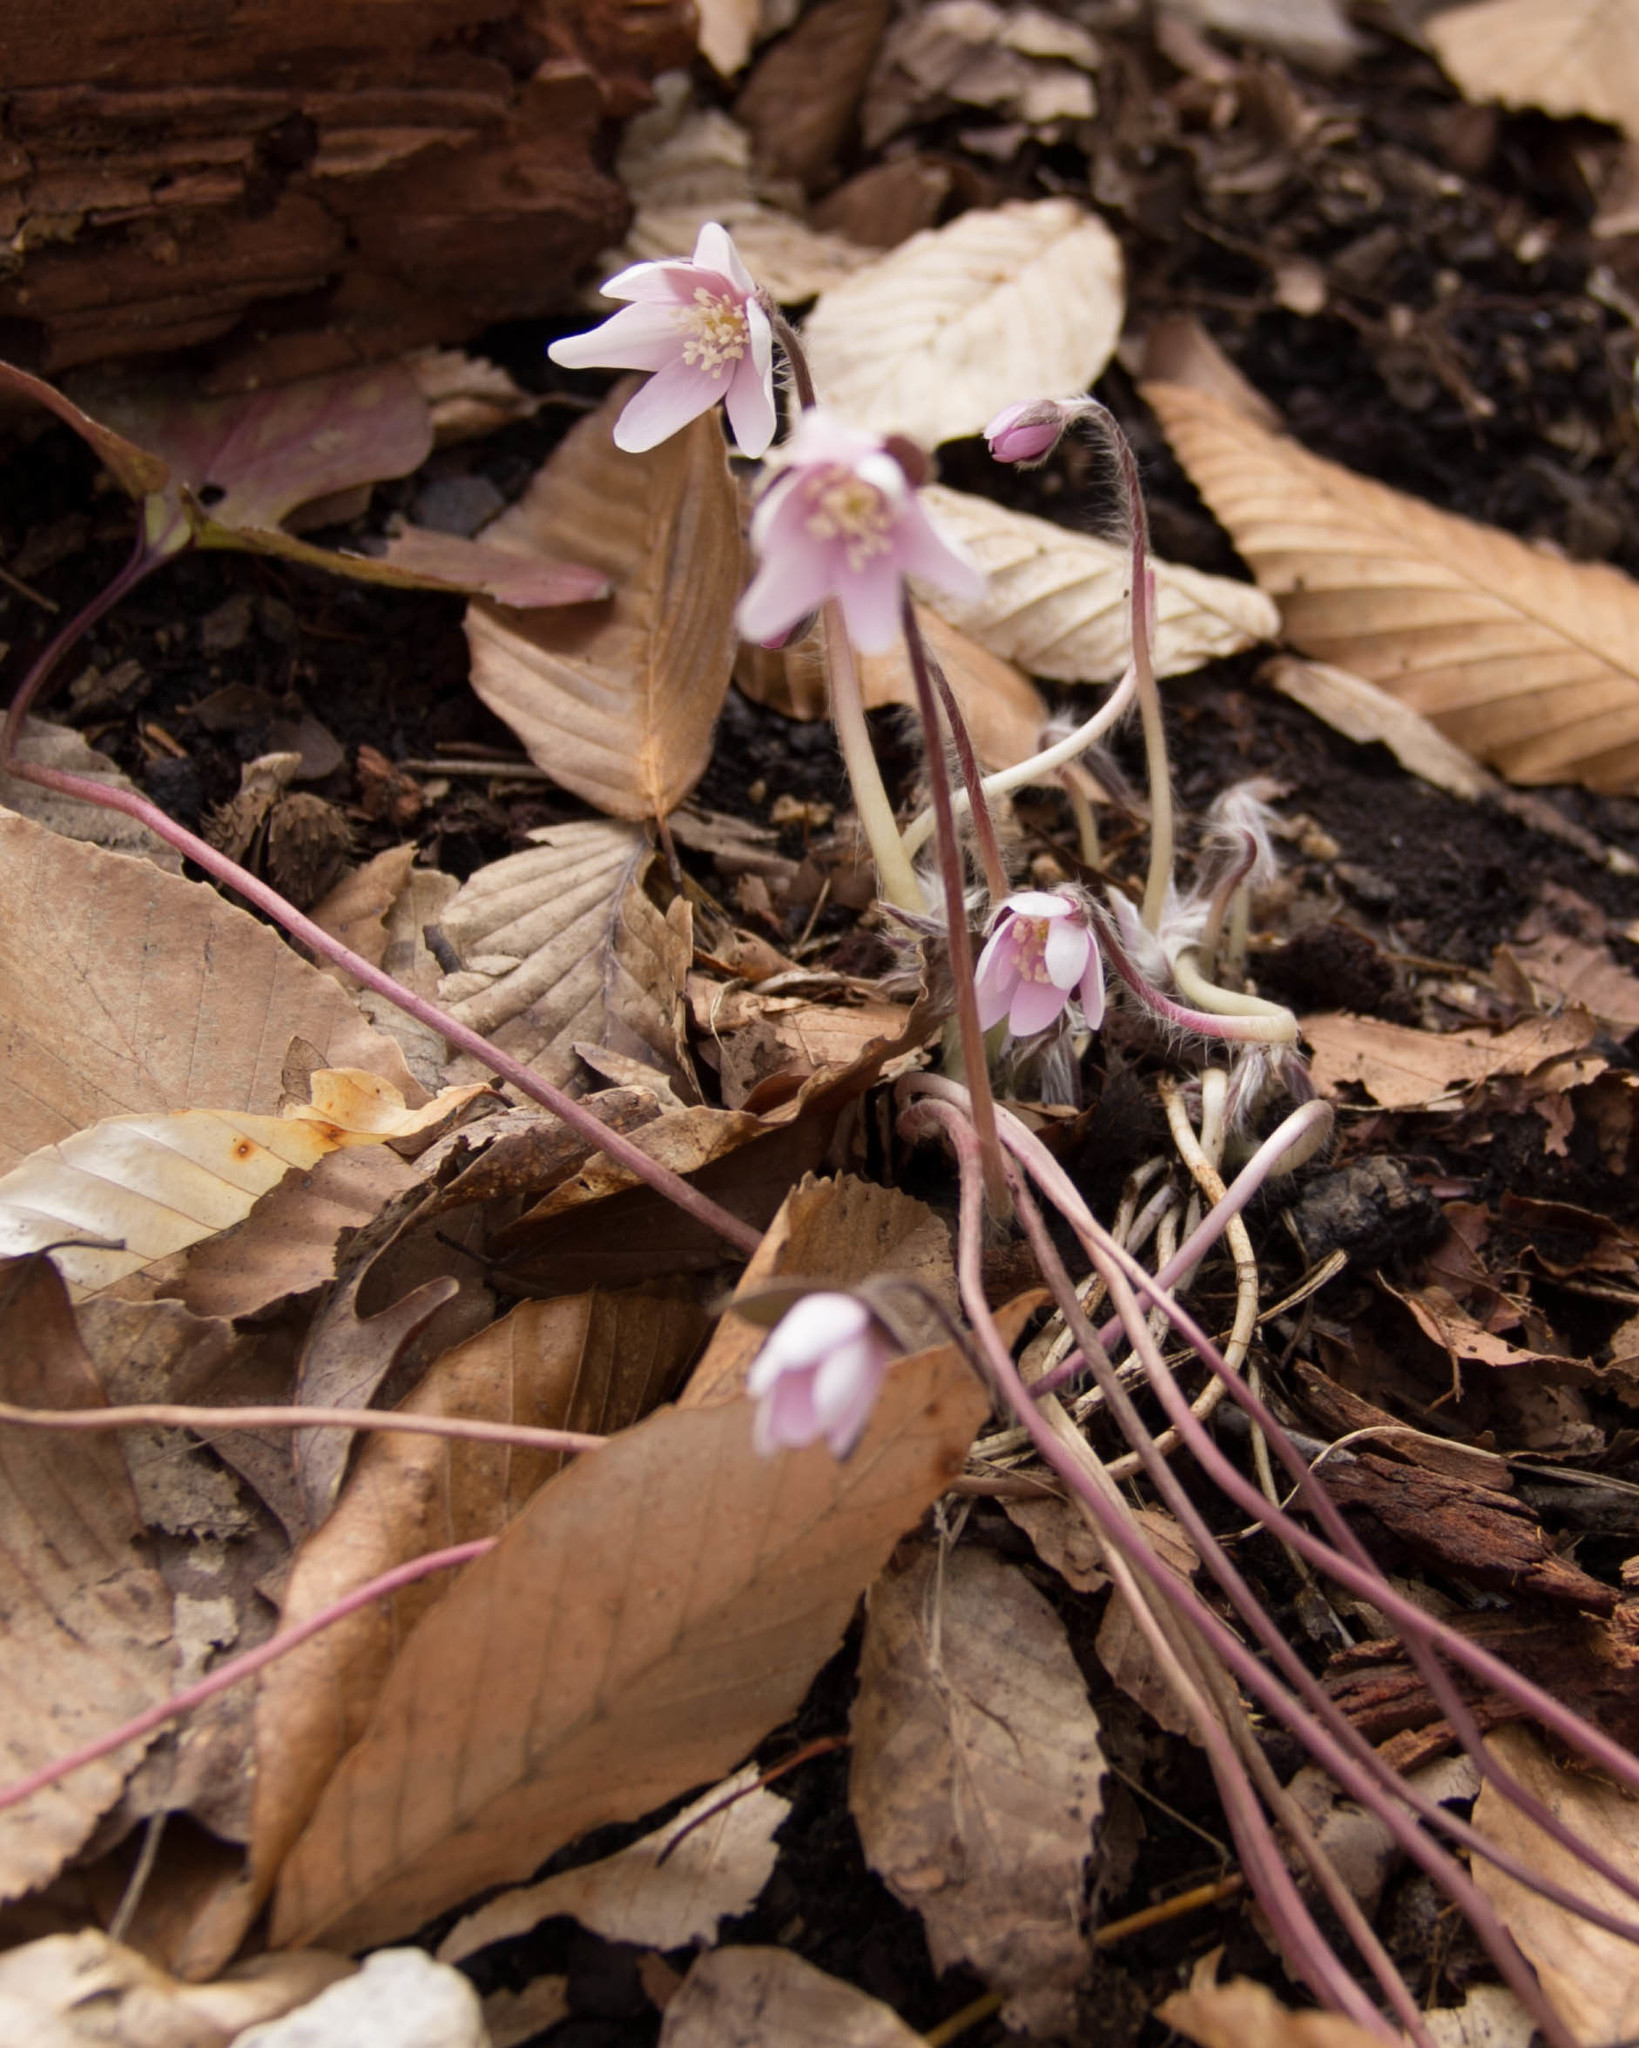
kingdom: Plantae
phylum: Tracheophyta
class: Magnoliopsida
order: Ranunculales
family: Ranunculaceae
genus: Hepatica
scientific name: Hepatica acutiloba
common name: Sharp-lobed hepatica
